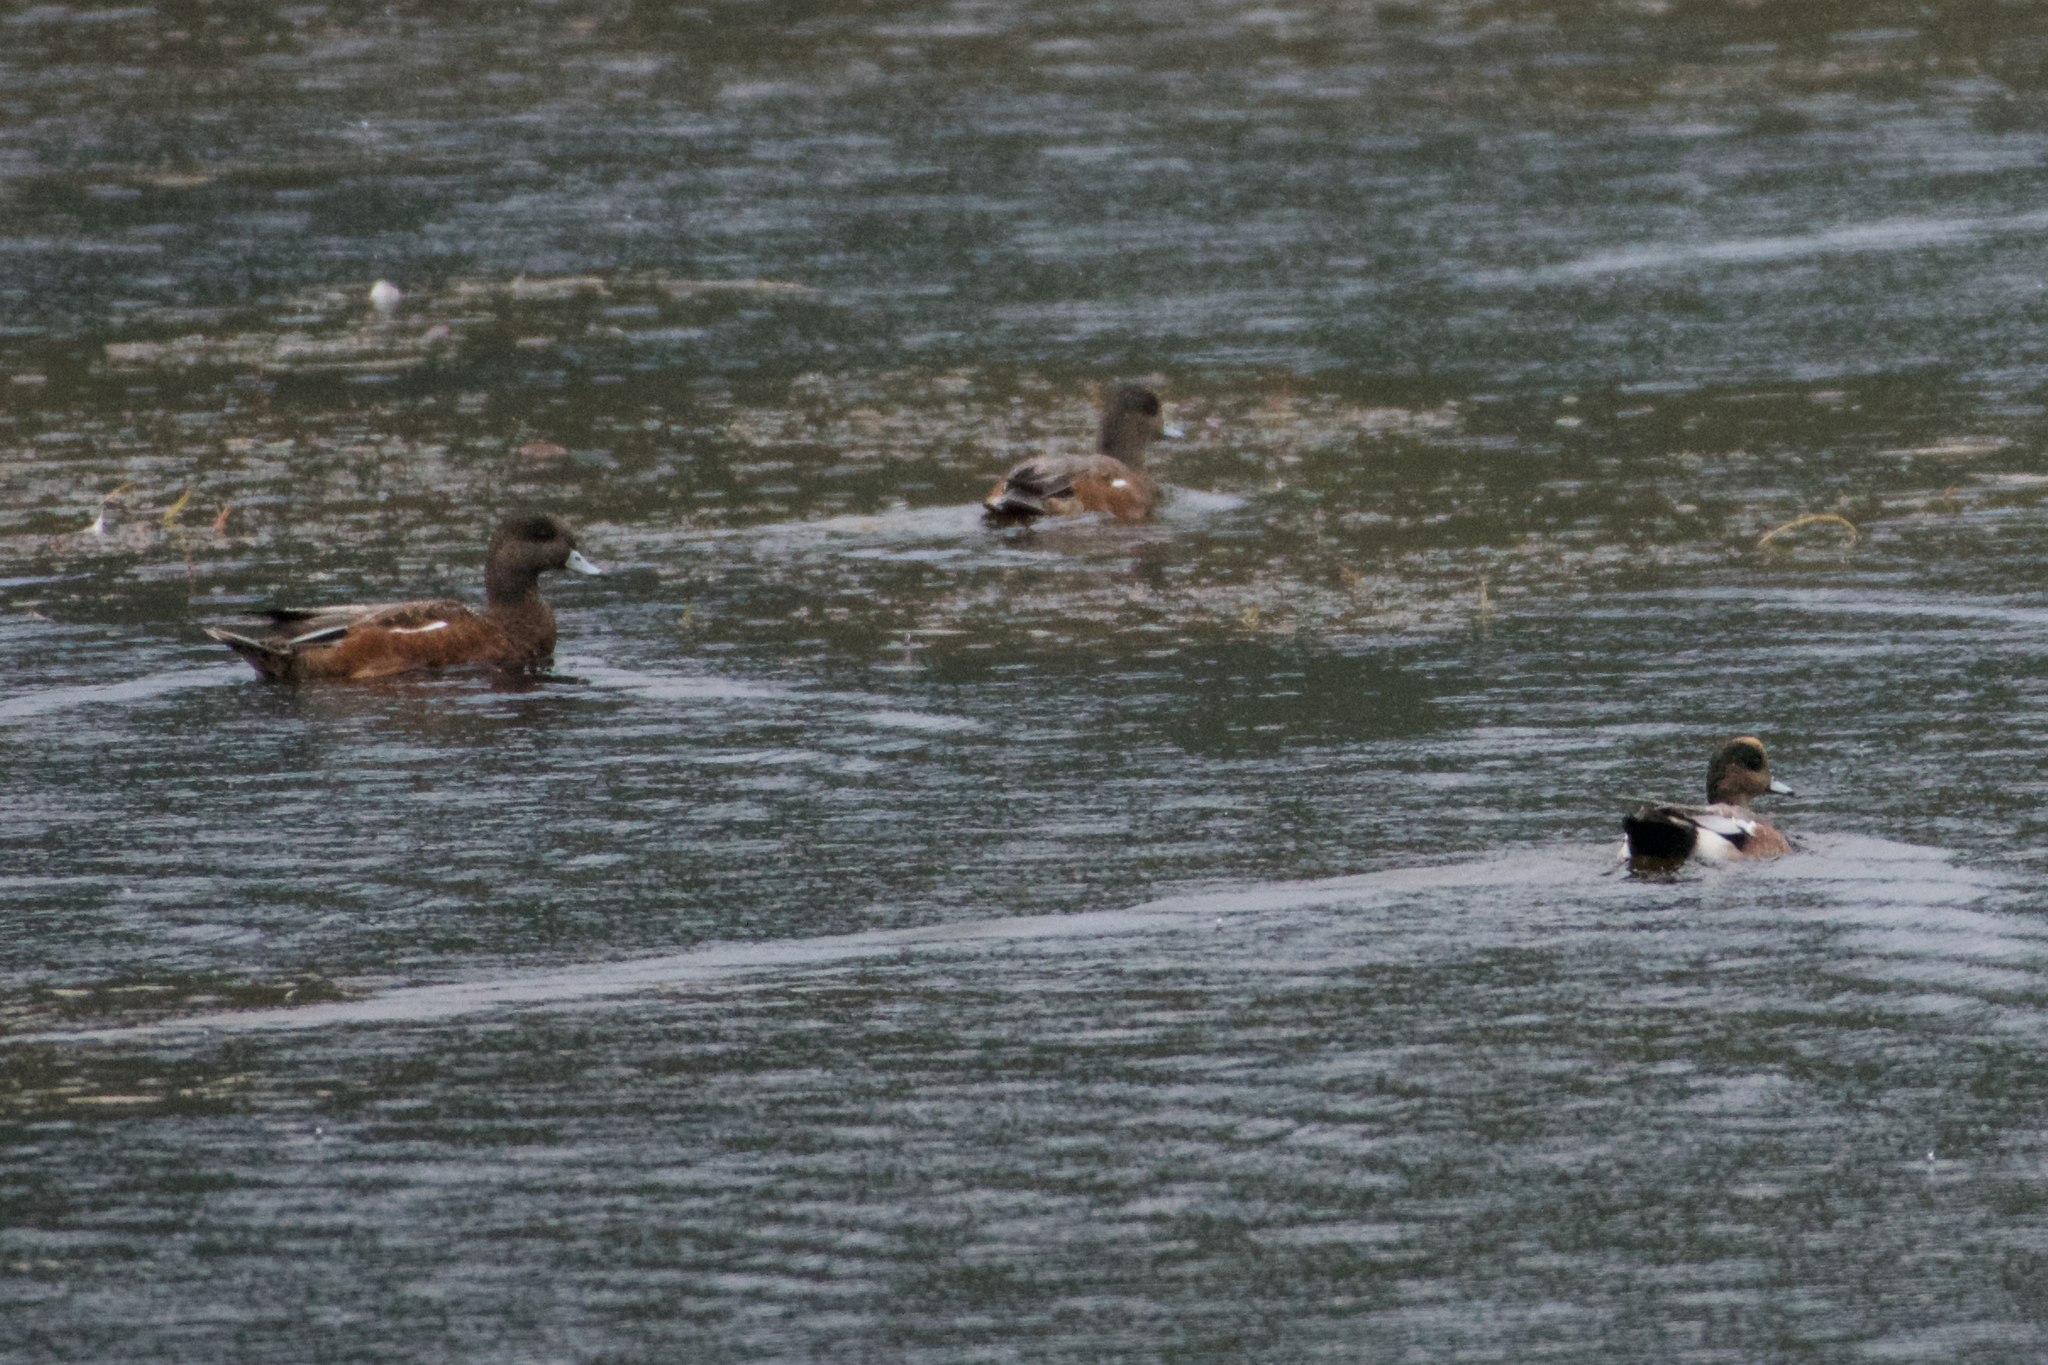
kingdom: Animalia
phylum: Chordata
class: Aves
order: Anseriformes
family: Anatidae
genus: Mareca
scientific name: Mareca americana
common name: American wigeon
